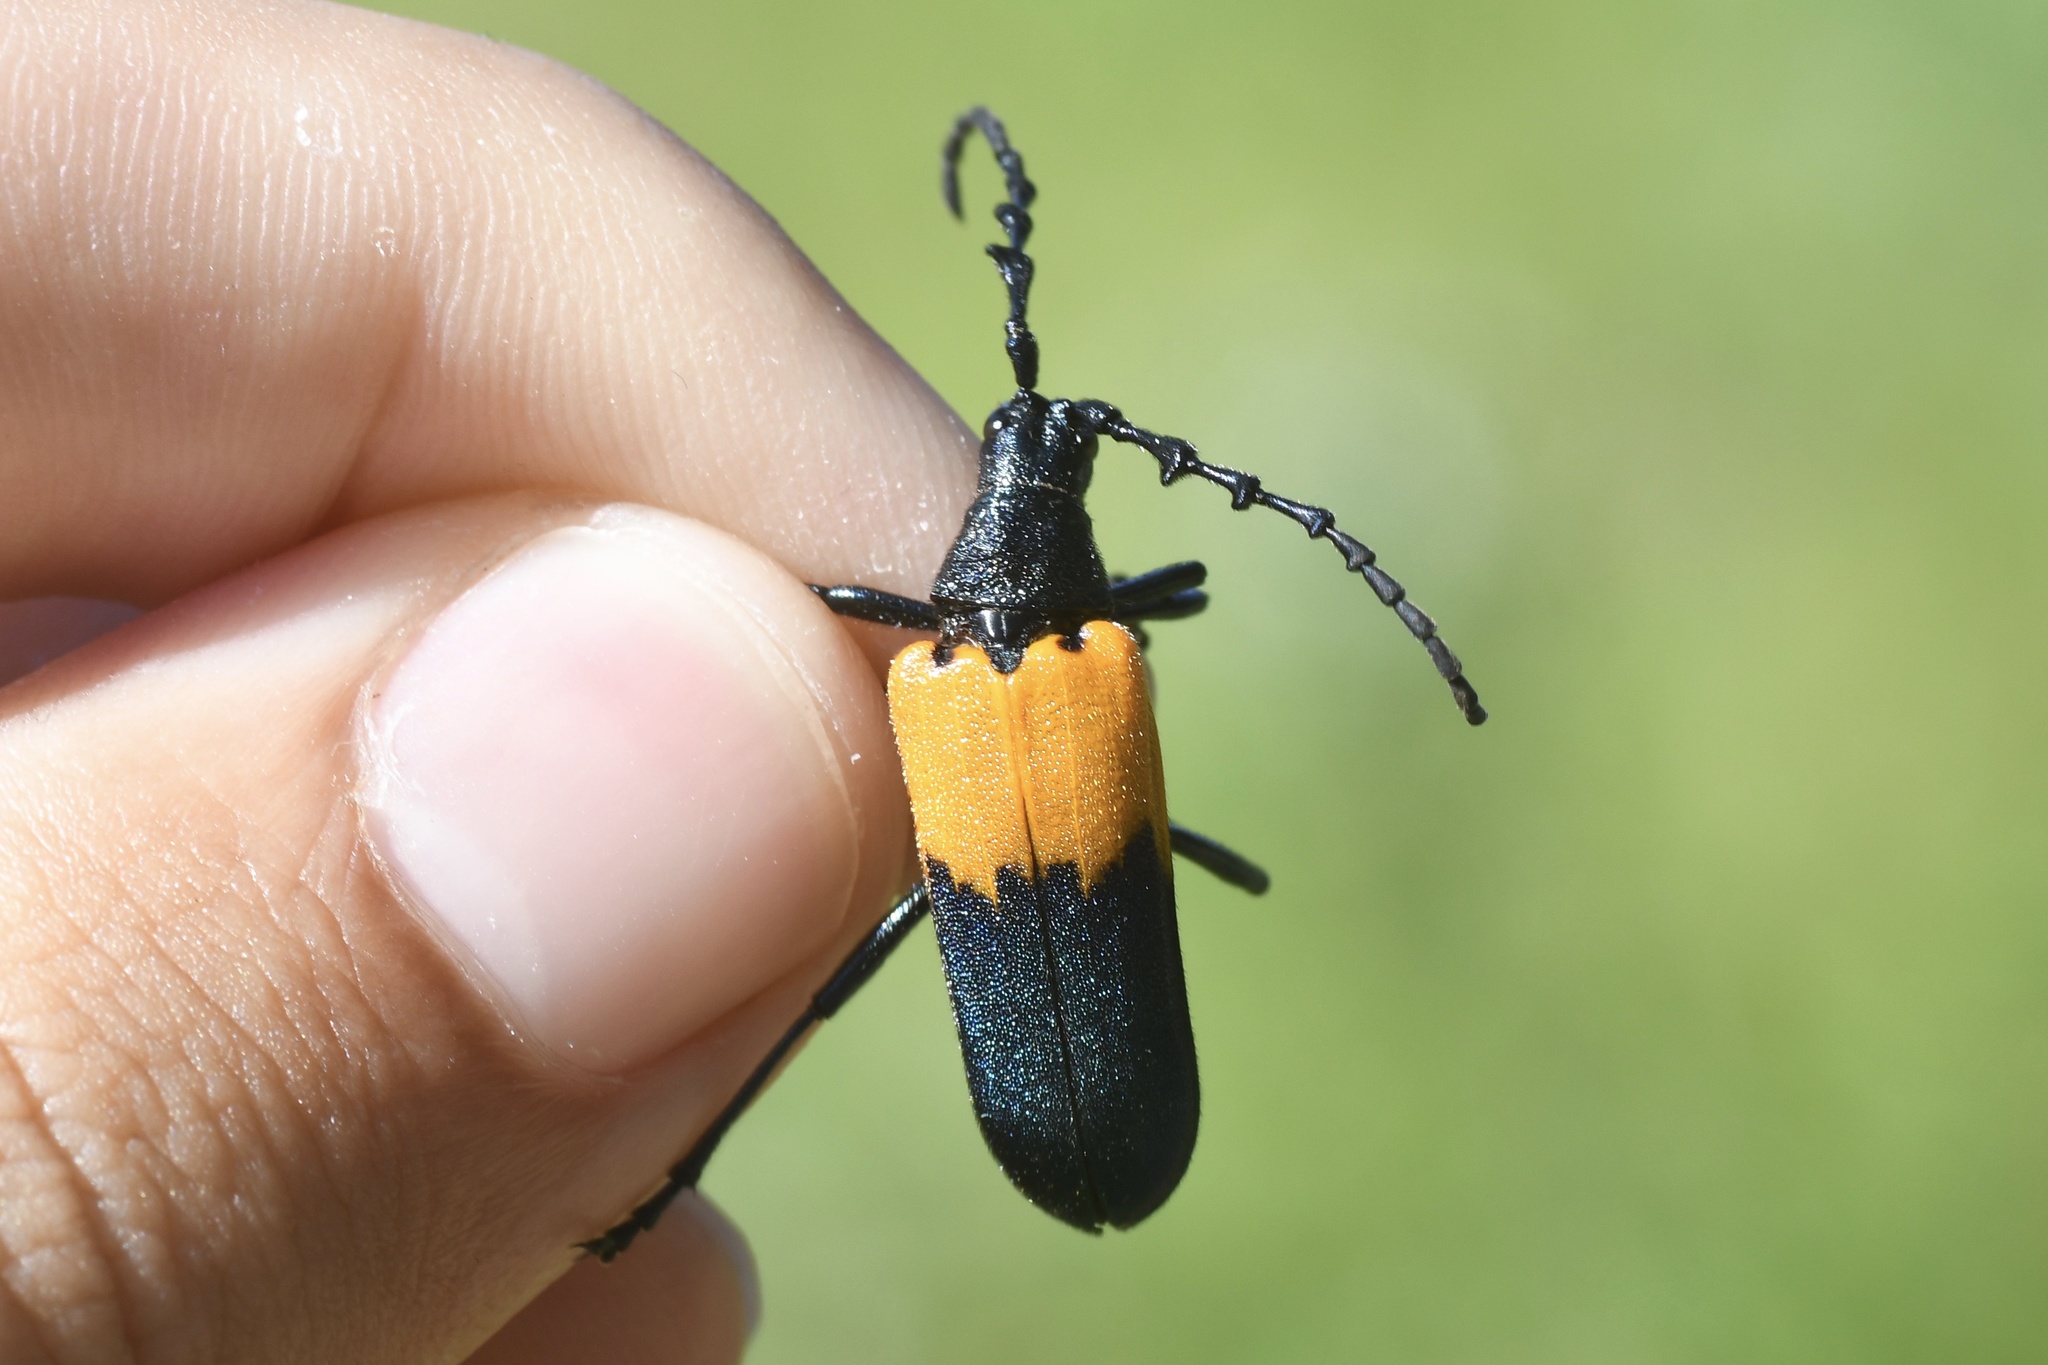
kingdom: Animalia
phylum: Arthropoda
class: Insecta
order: Coleoptera
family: Cerambycidae
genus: Desmocerus
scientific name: Desmocerus palliatus
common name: Eastern elderberry borer
